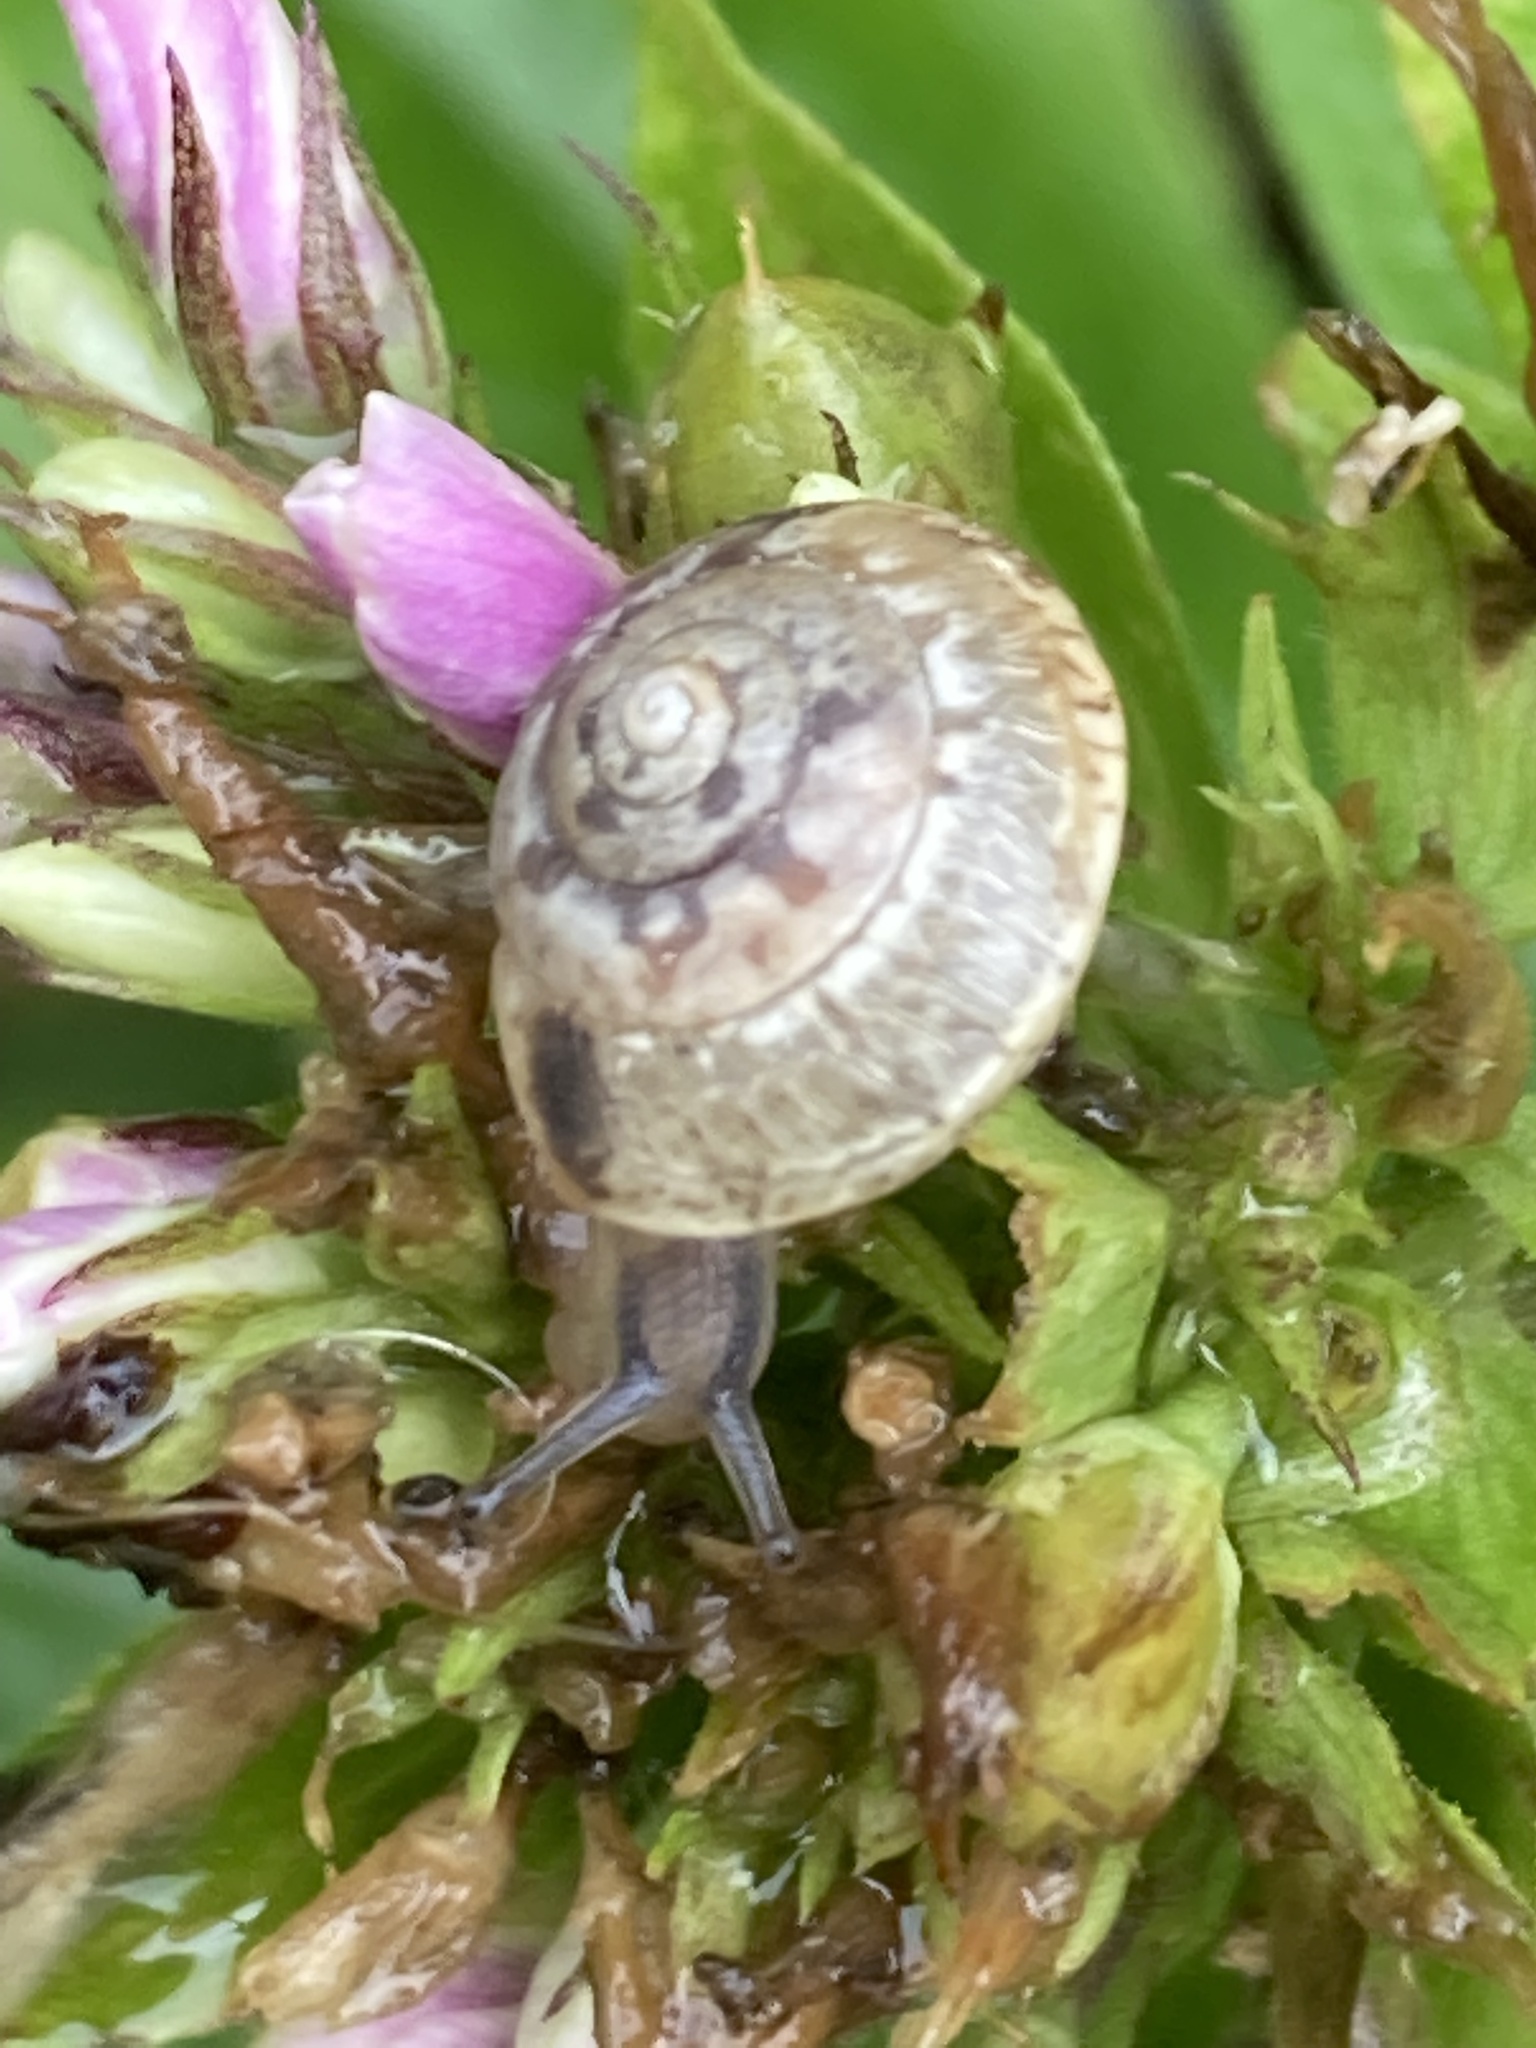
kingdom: Animalia
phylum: Mollusca
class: Gastropoda
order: Stylommatophora
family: Hygromiidae
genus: Hygromia
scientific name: Hygromia cinctella
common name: Girdled snail
